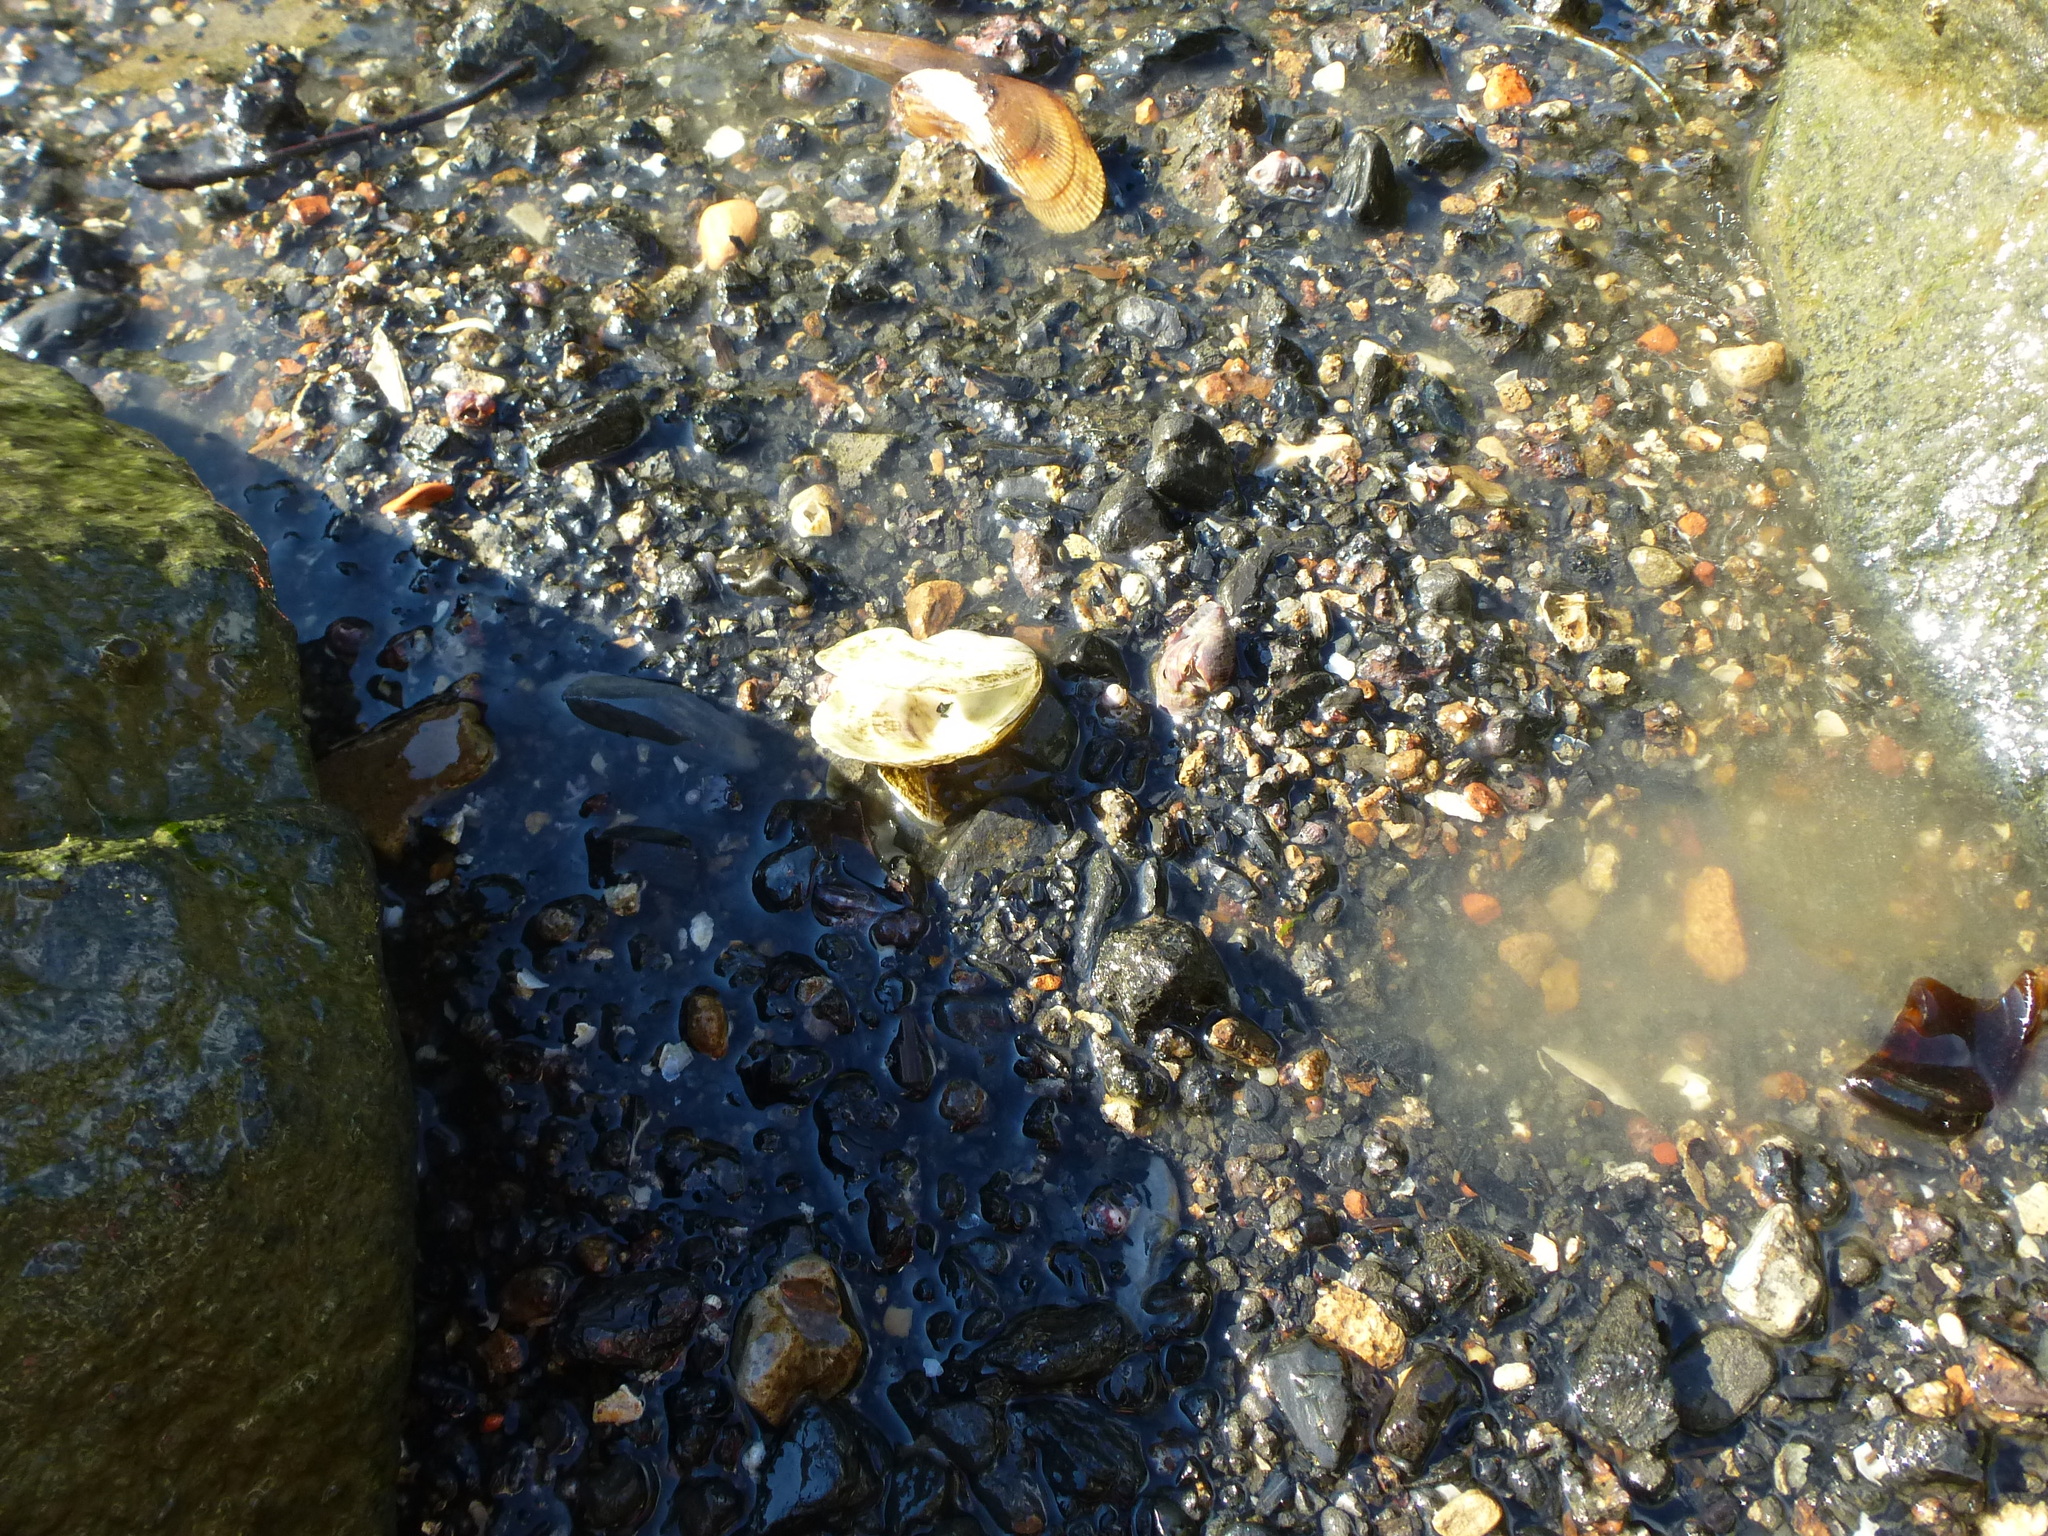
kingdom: Animalia
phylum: Mollusca
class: Bivalvia
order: Ostreida
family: Ostreidae
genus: Crassostrea
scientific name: Crassostrea virginica
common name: American oyster
